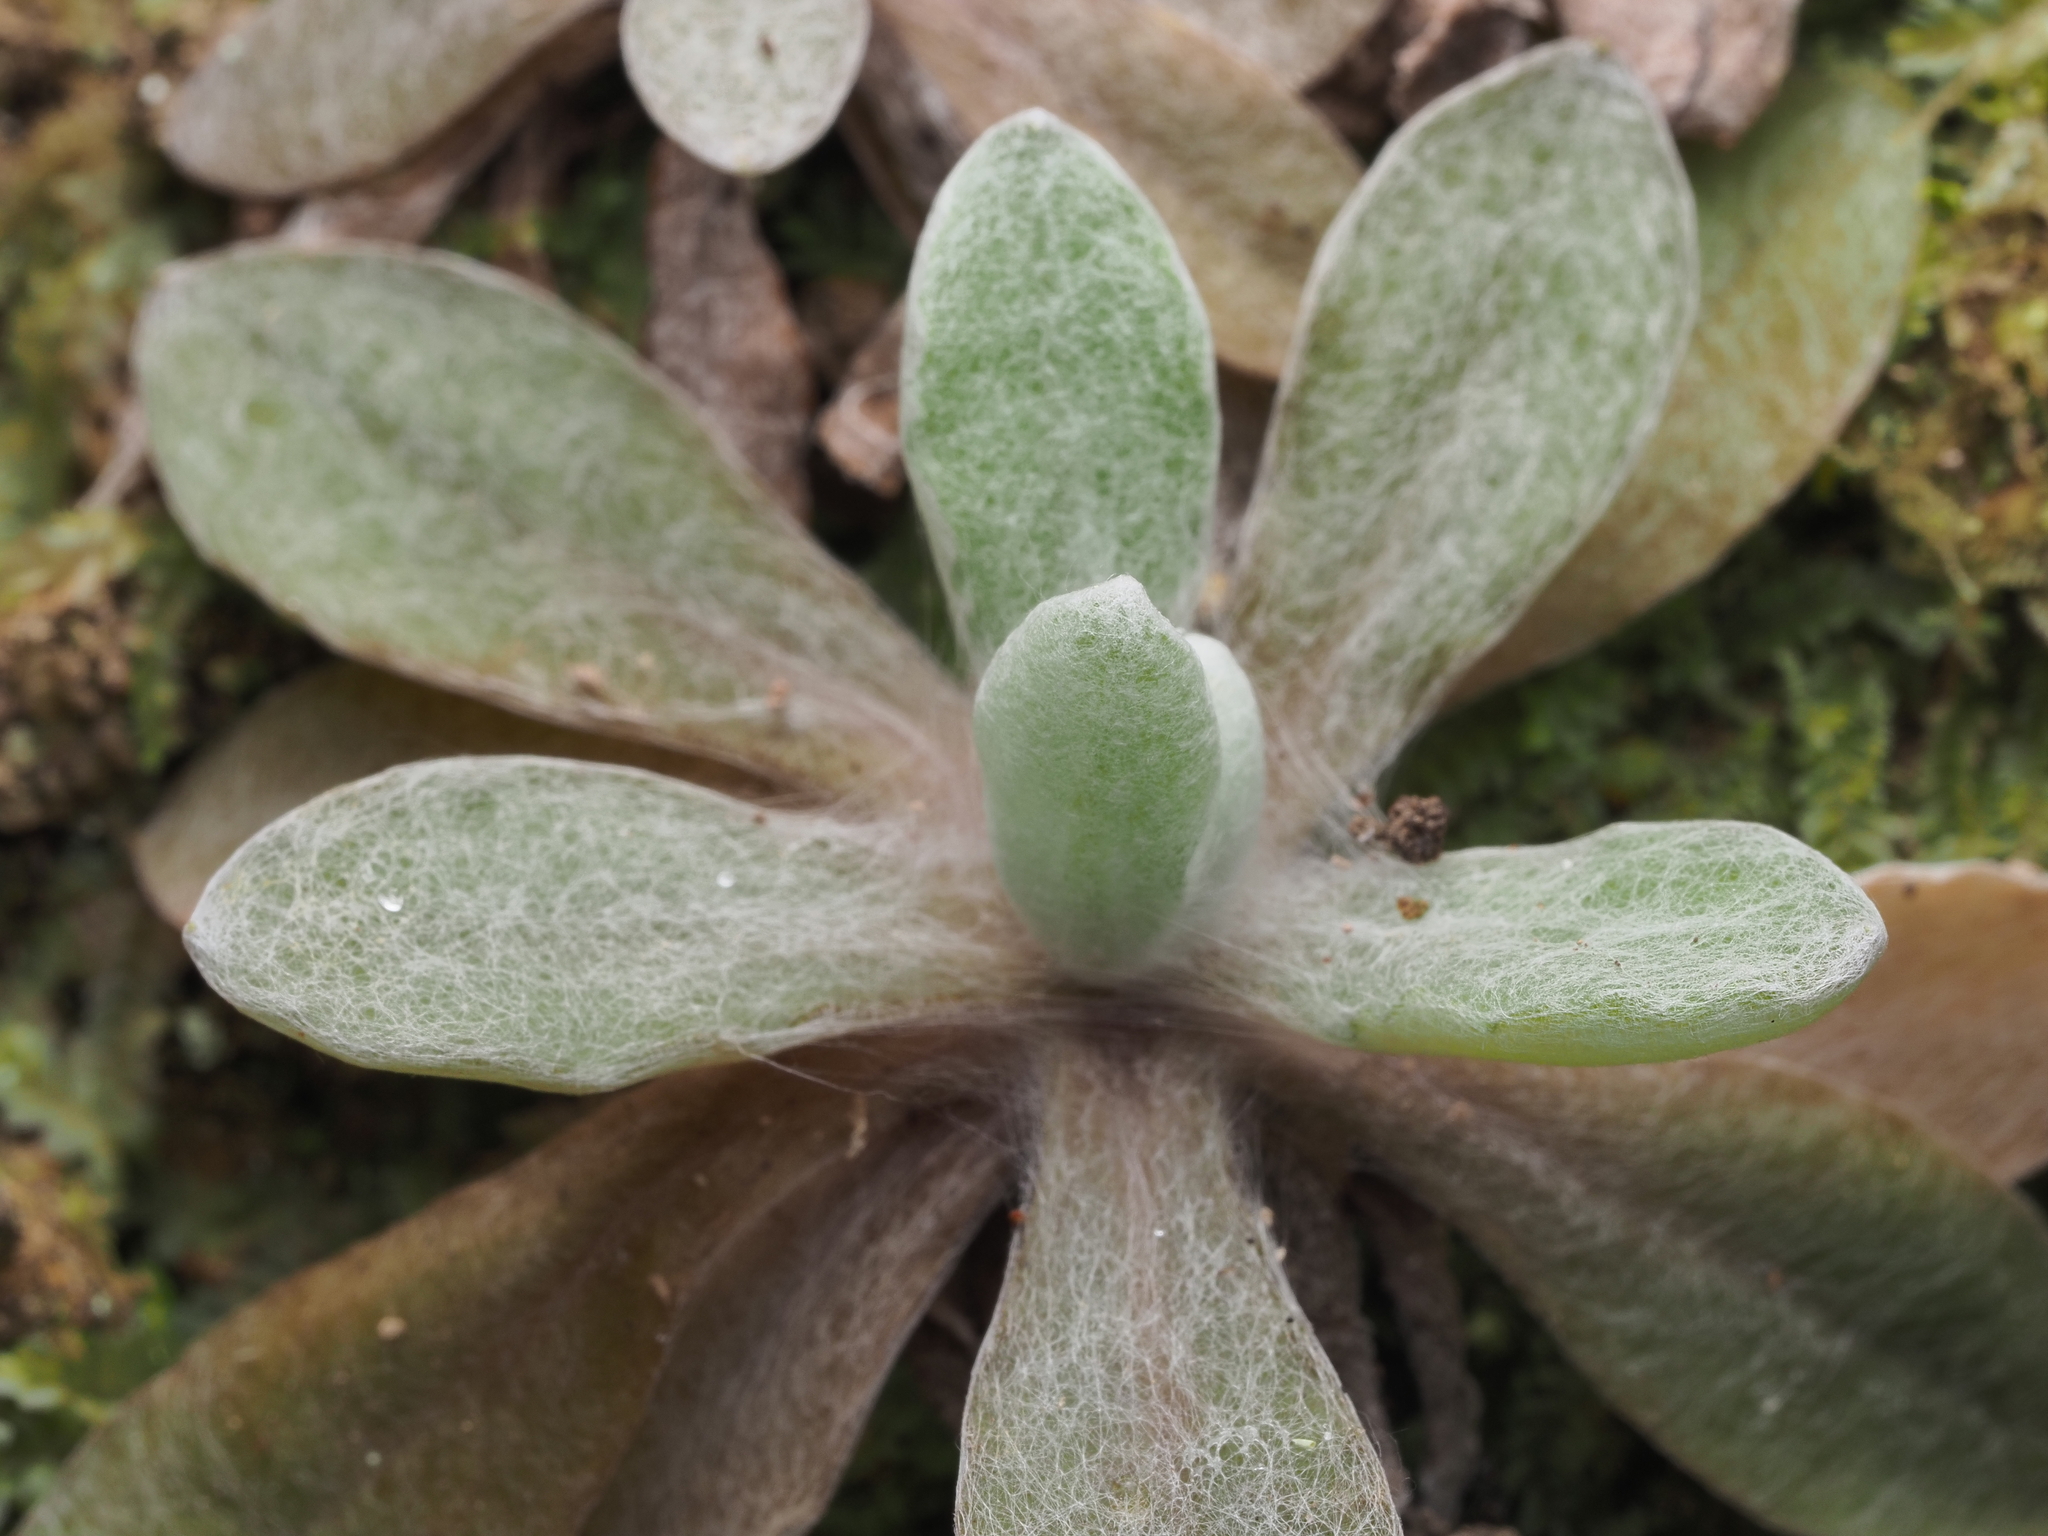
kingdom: Plantae
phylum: Tracheophyta
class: Magnoliopsida
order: Asterales
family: Asteraceae
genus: Helichrysum
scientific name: Helichrysum luteoalbum
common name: Daisy
